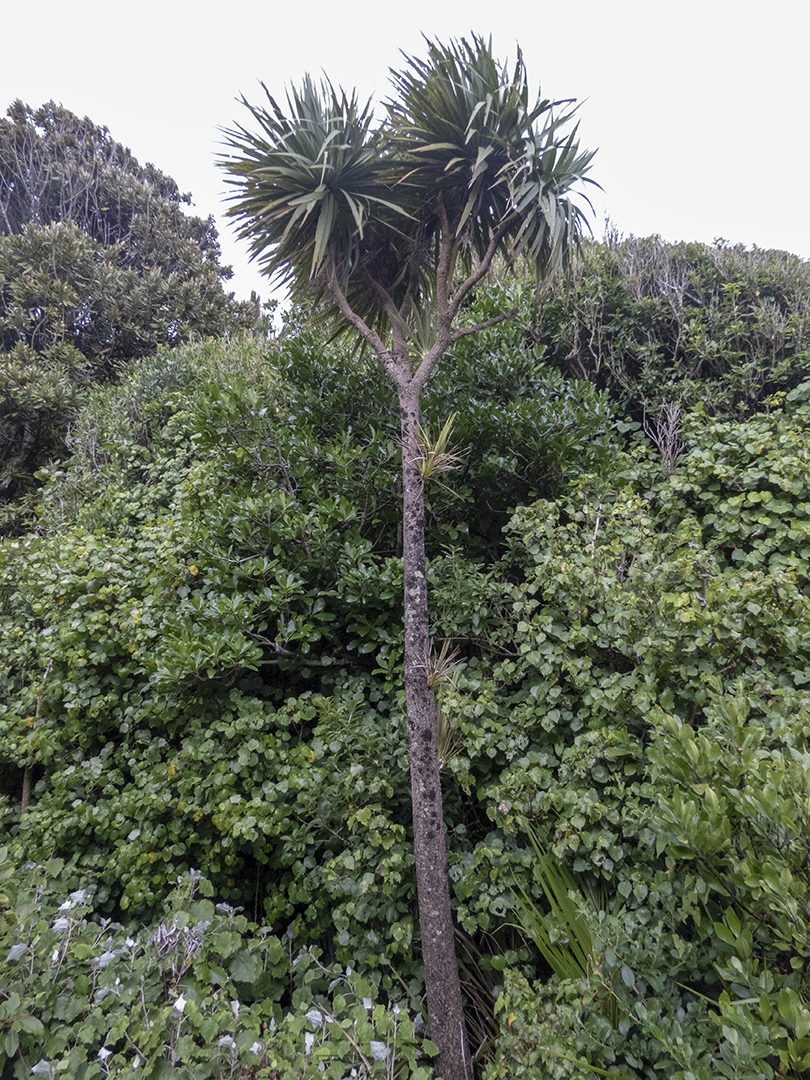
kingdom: Plantae
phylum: Tracheophyta
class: Liliopsida
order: Asparagales
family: Asparagaceae
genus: Cordyline
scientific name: Cordyline australis
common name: Cabbage-palm
